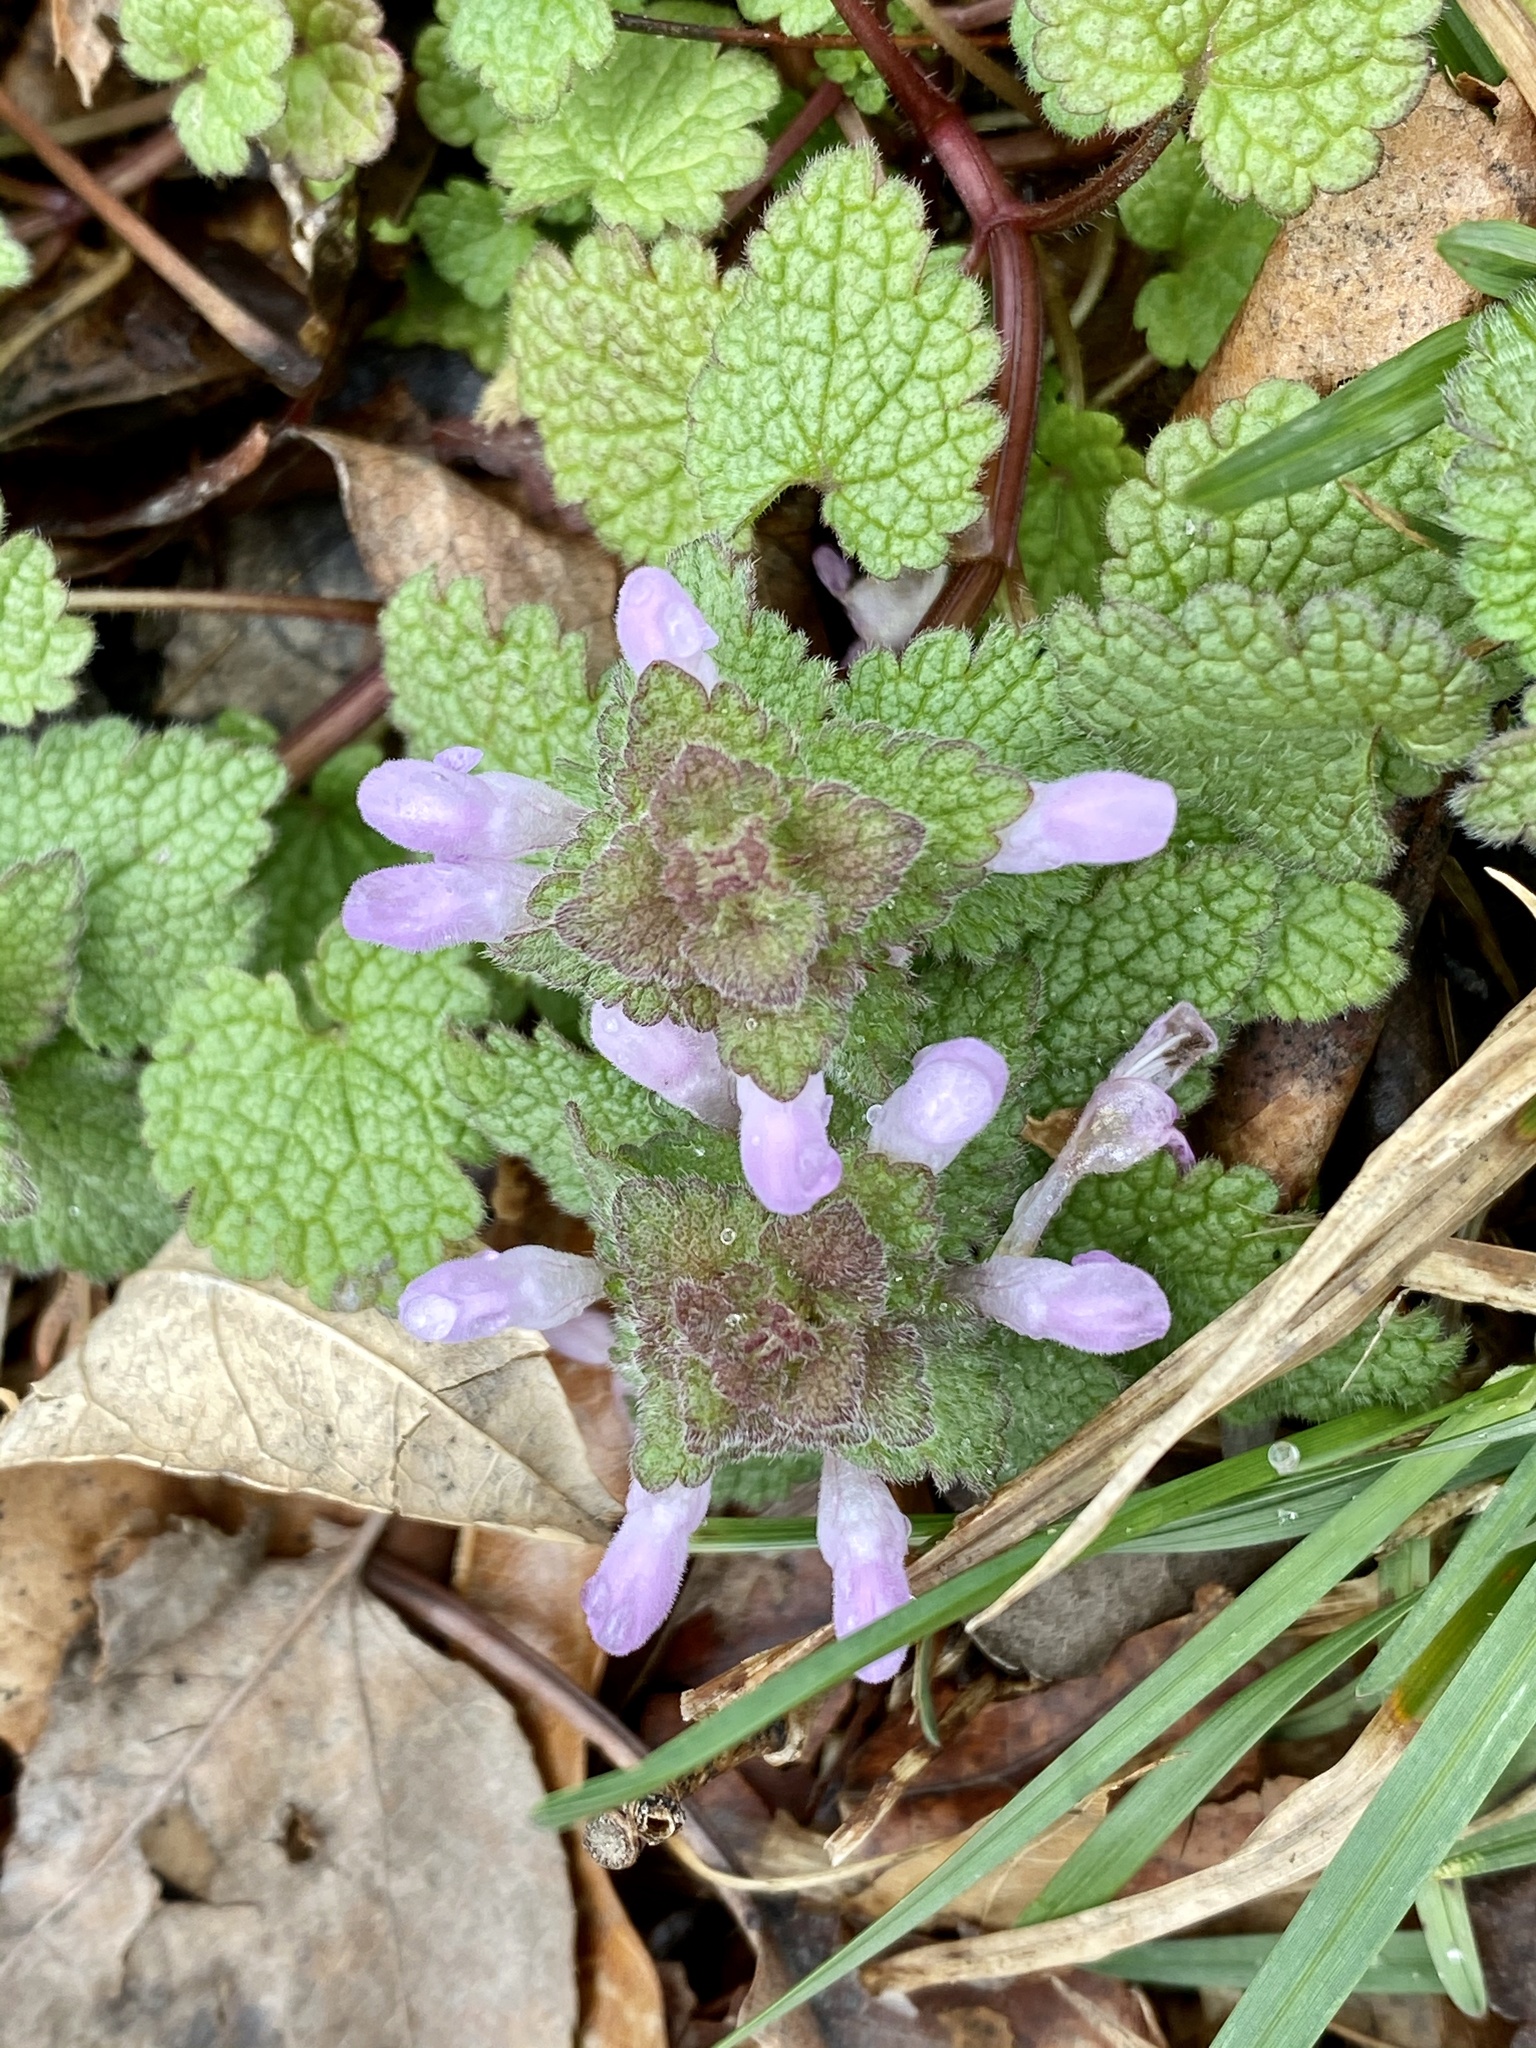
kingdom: Plantae
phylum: Tracheophyta
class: Magnoliopsida
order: Lamiales
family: Lamiaceae
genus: Lamium
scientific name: Lamium purpureum
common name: Red dead-nettle
